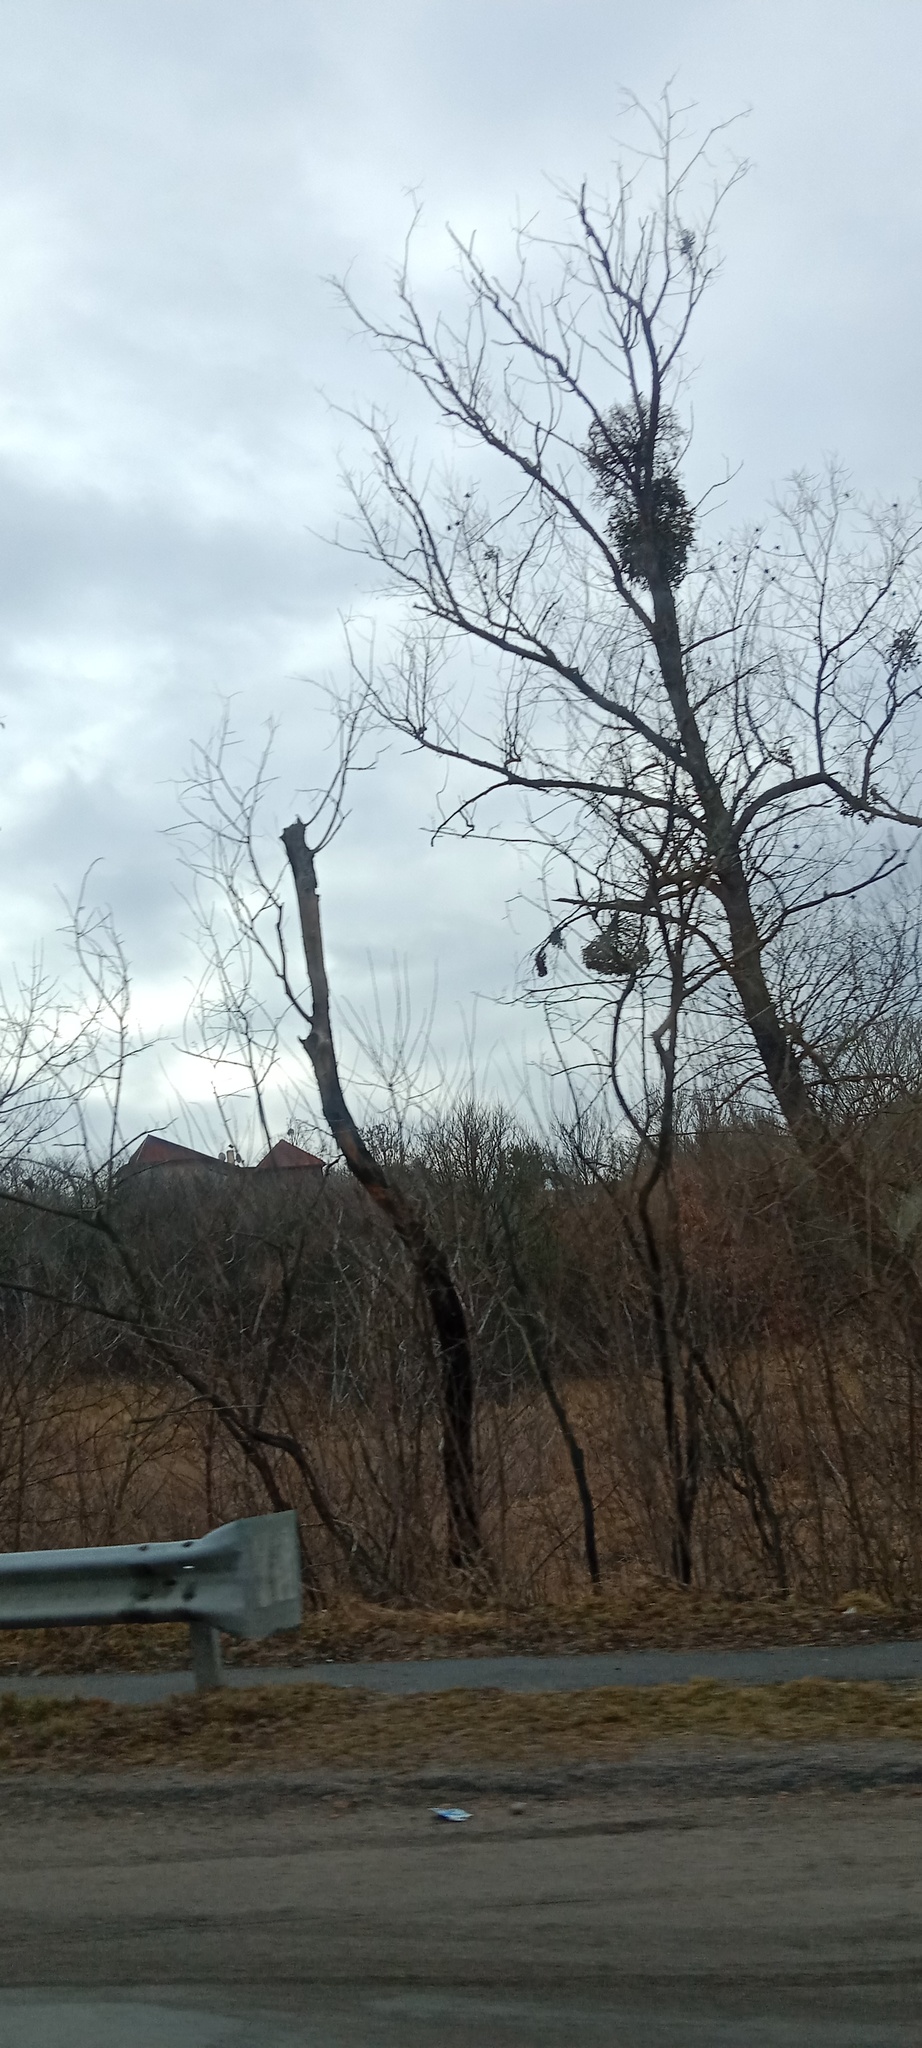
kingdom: Plantae
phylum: Tracheophyta
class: Magnoliopsida
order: Santalales
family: Viscaceae
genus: Viscum
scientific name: Viscum album
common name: Mistletoe
